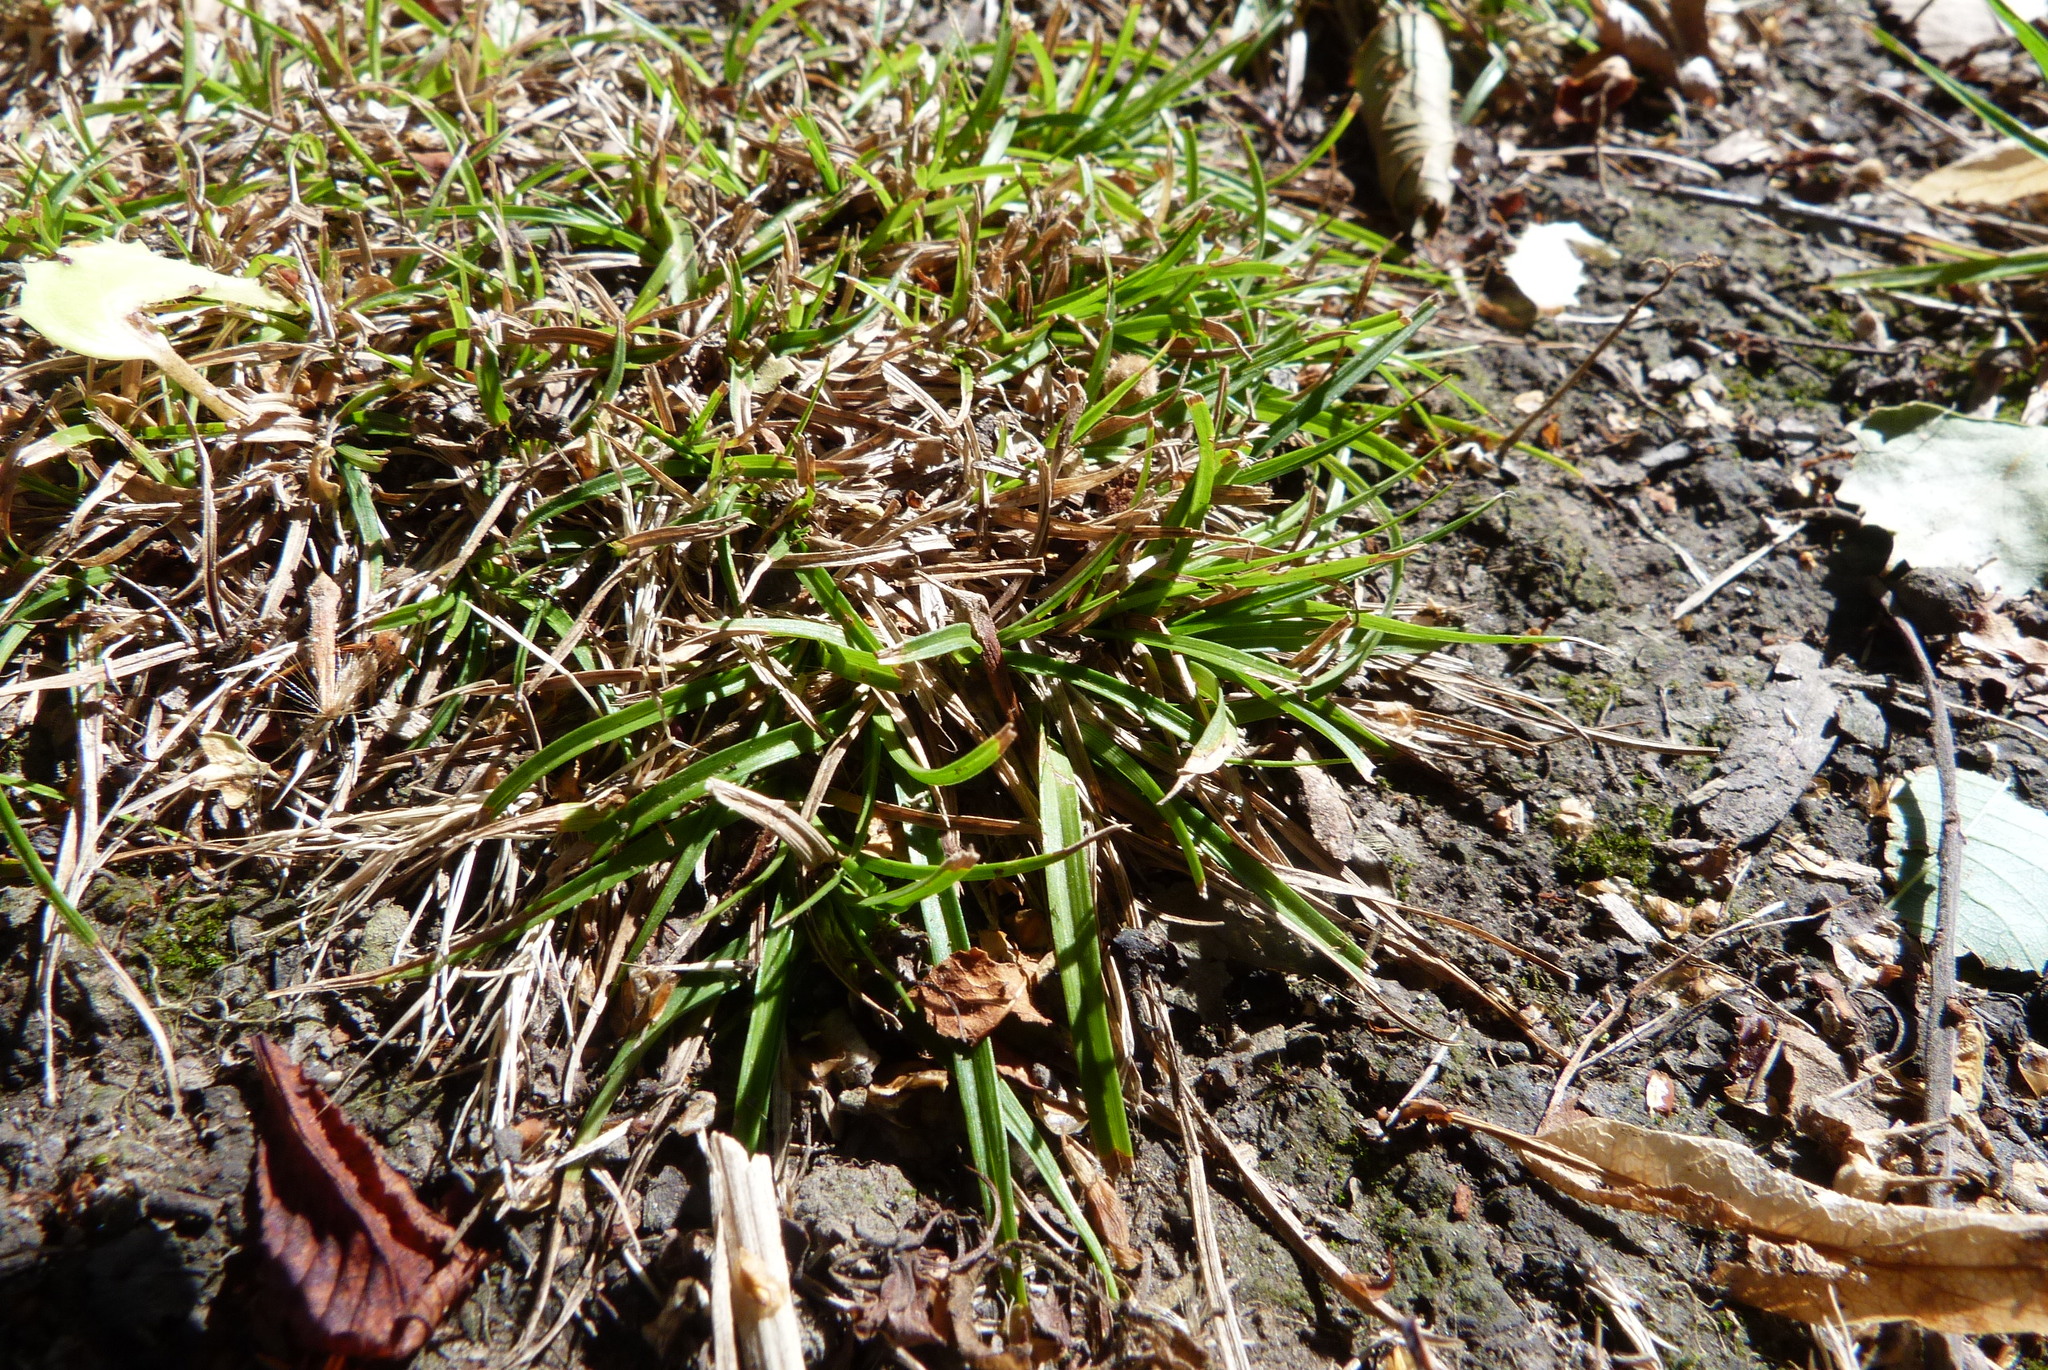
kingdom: Plantae
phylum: Tracheophyta
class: Liliopsida
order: Poales
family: Cyperaceae
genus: Carex
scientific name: Carex breviculmis
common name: Asian shortstem sedge
